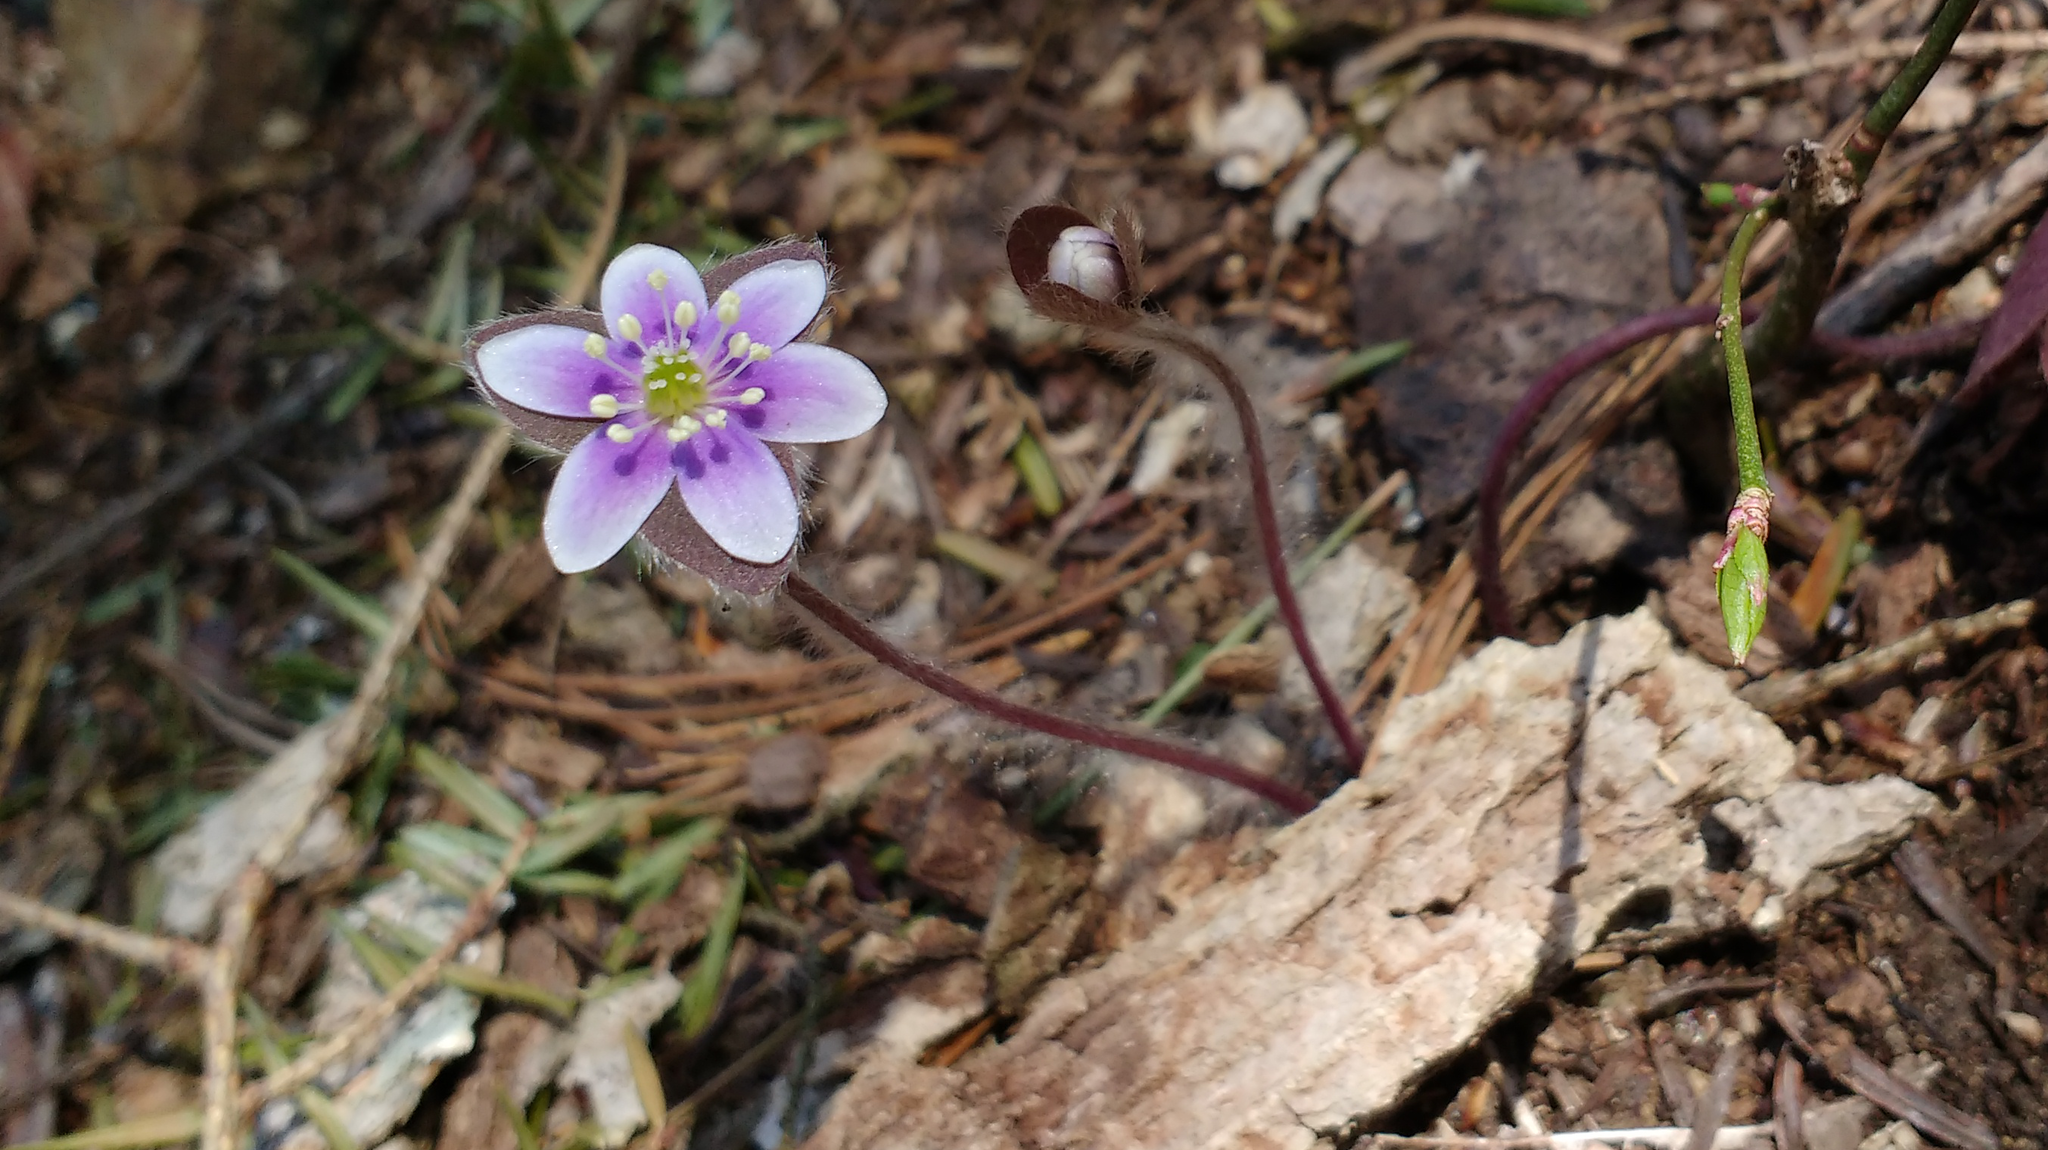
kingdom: Plantae
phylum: Tracheophyta
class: Magnoliopsida
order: Ranunculales
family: Ranunculaceae
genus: Hepatica
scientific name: Hepatica americana
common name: American hepatica
